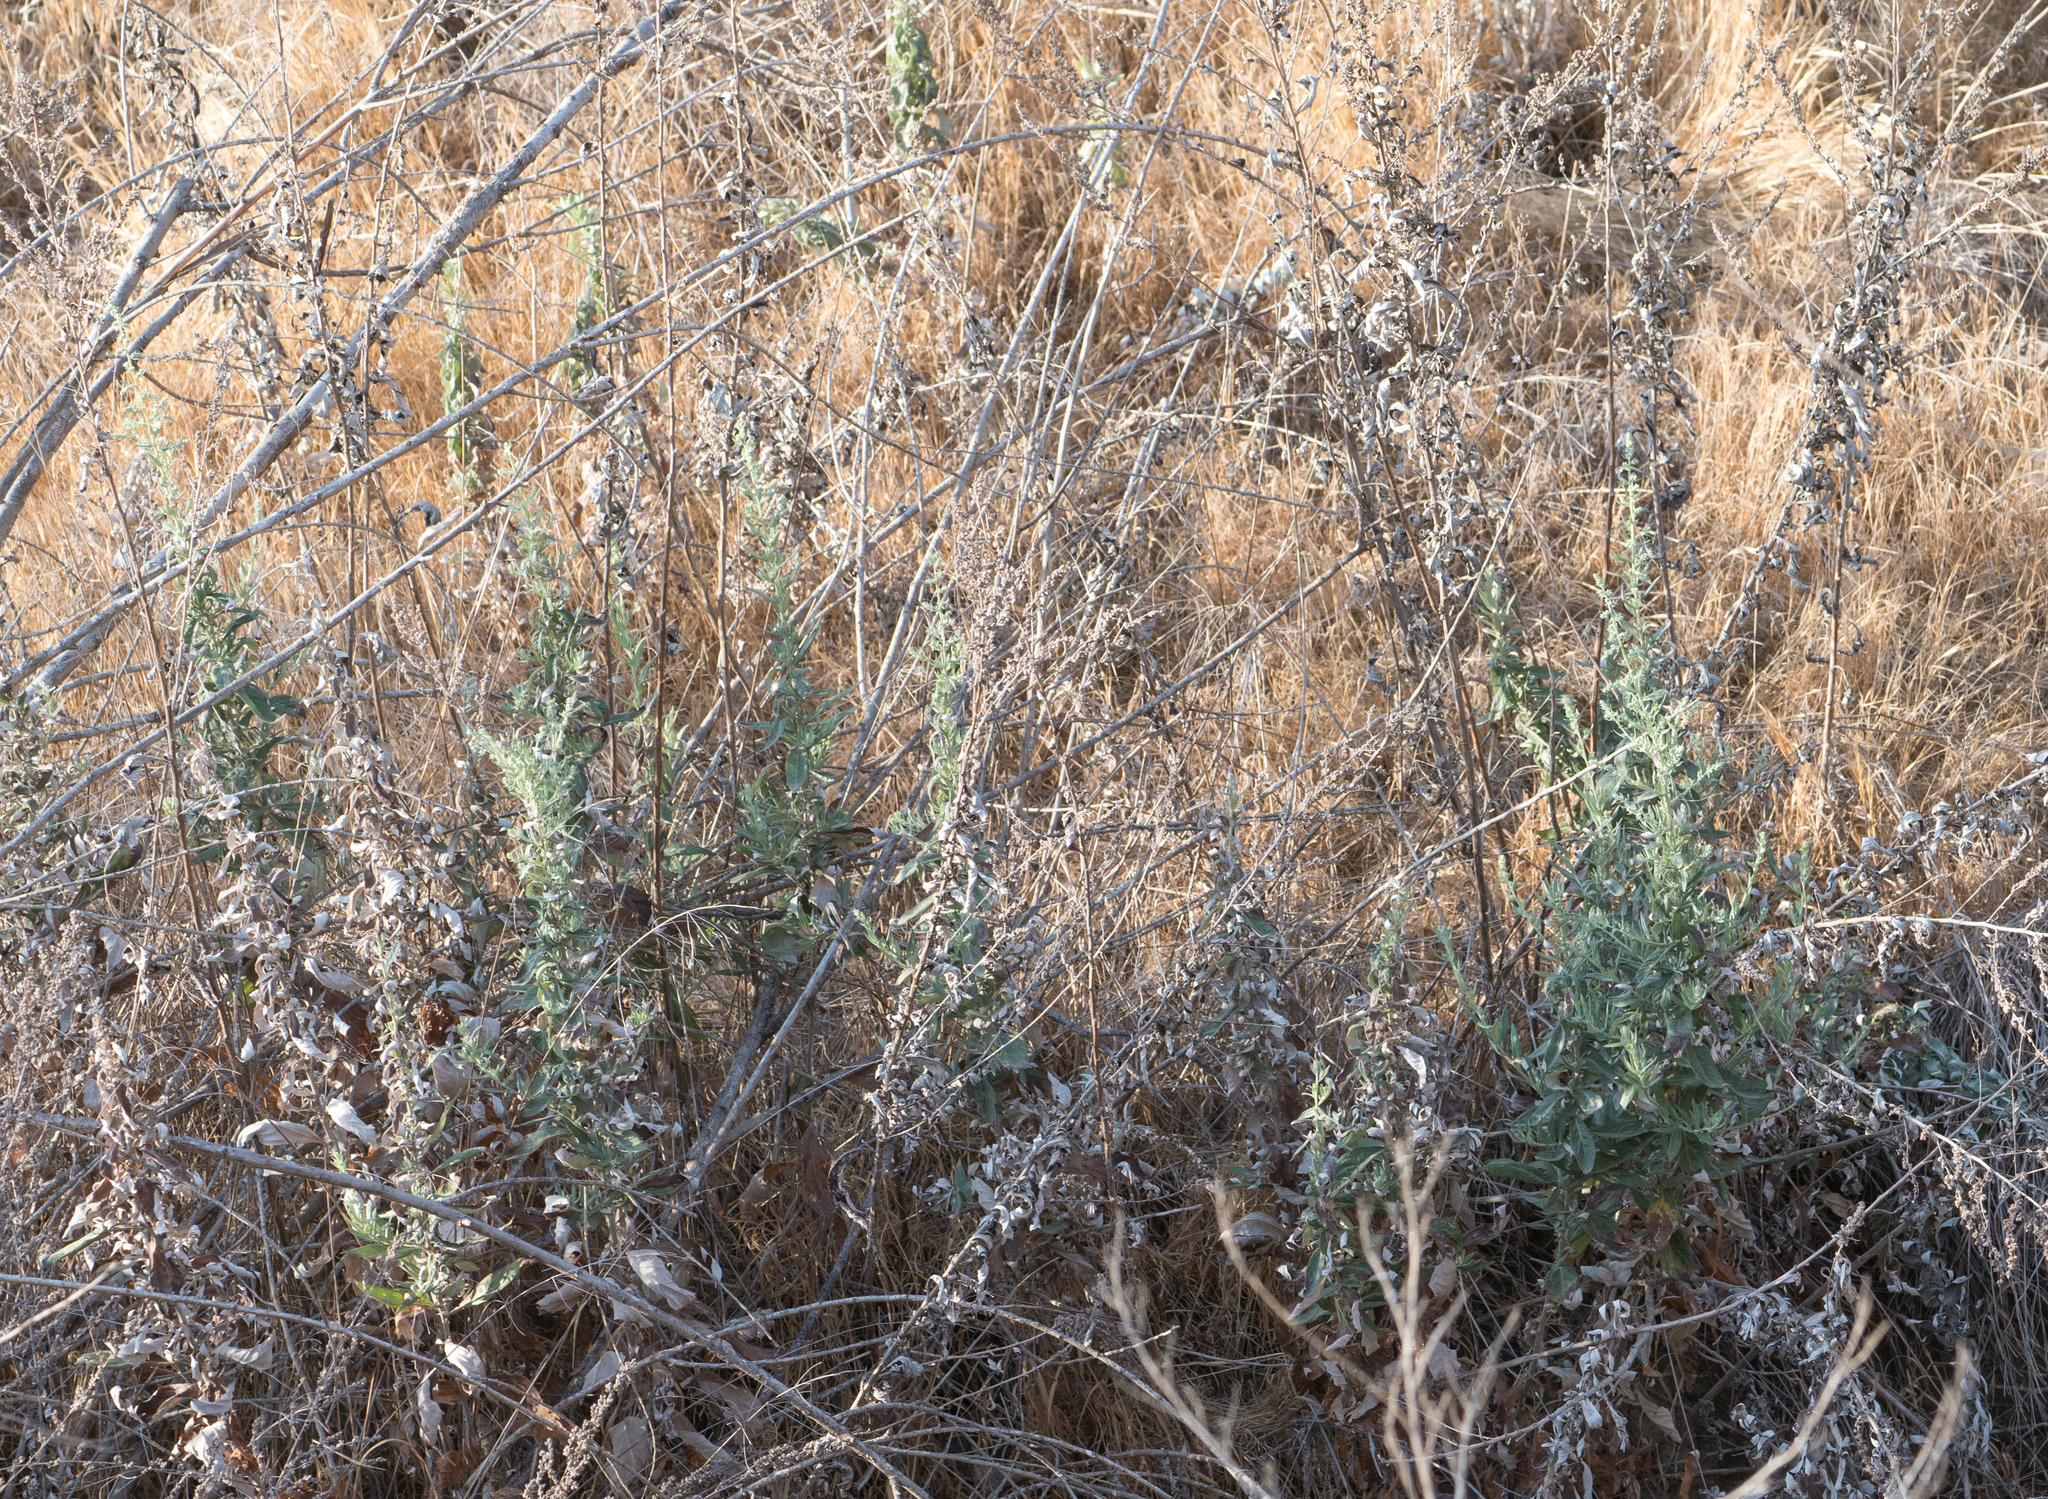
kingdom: Plantae
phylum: Tracheophyta
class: Magnoliopsida
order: Asterales
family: Asteraceae
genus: Artemisia
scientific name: Artemisia douglasiana
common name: Northwest mugwort
